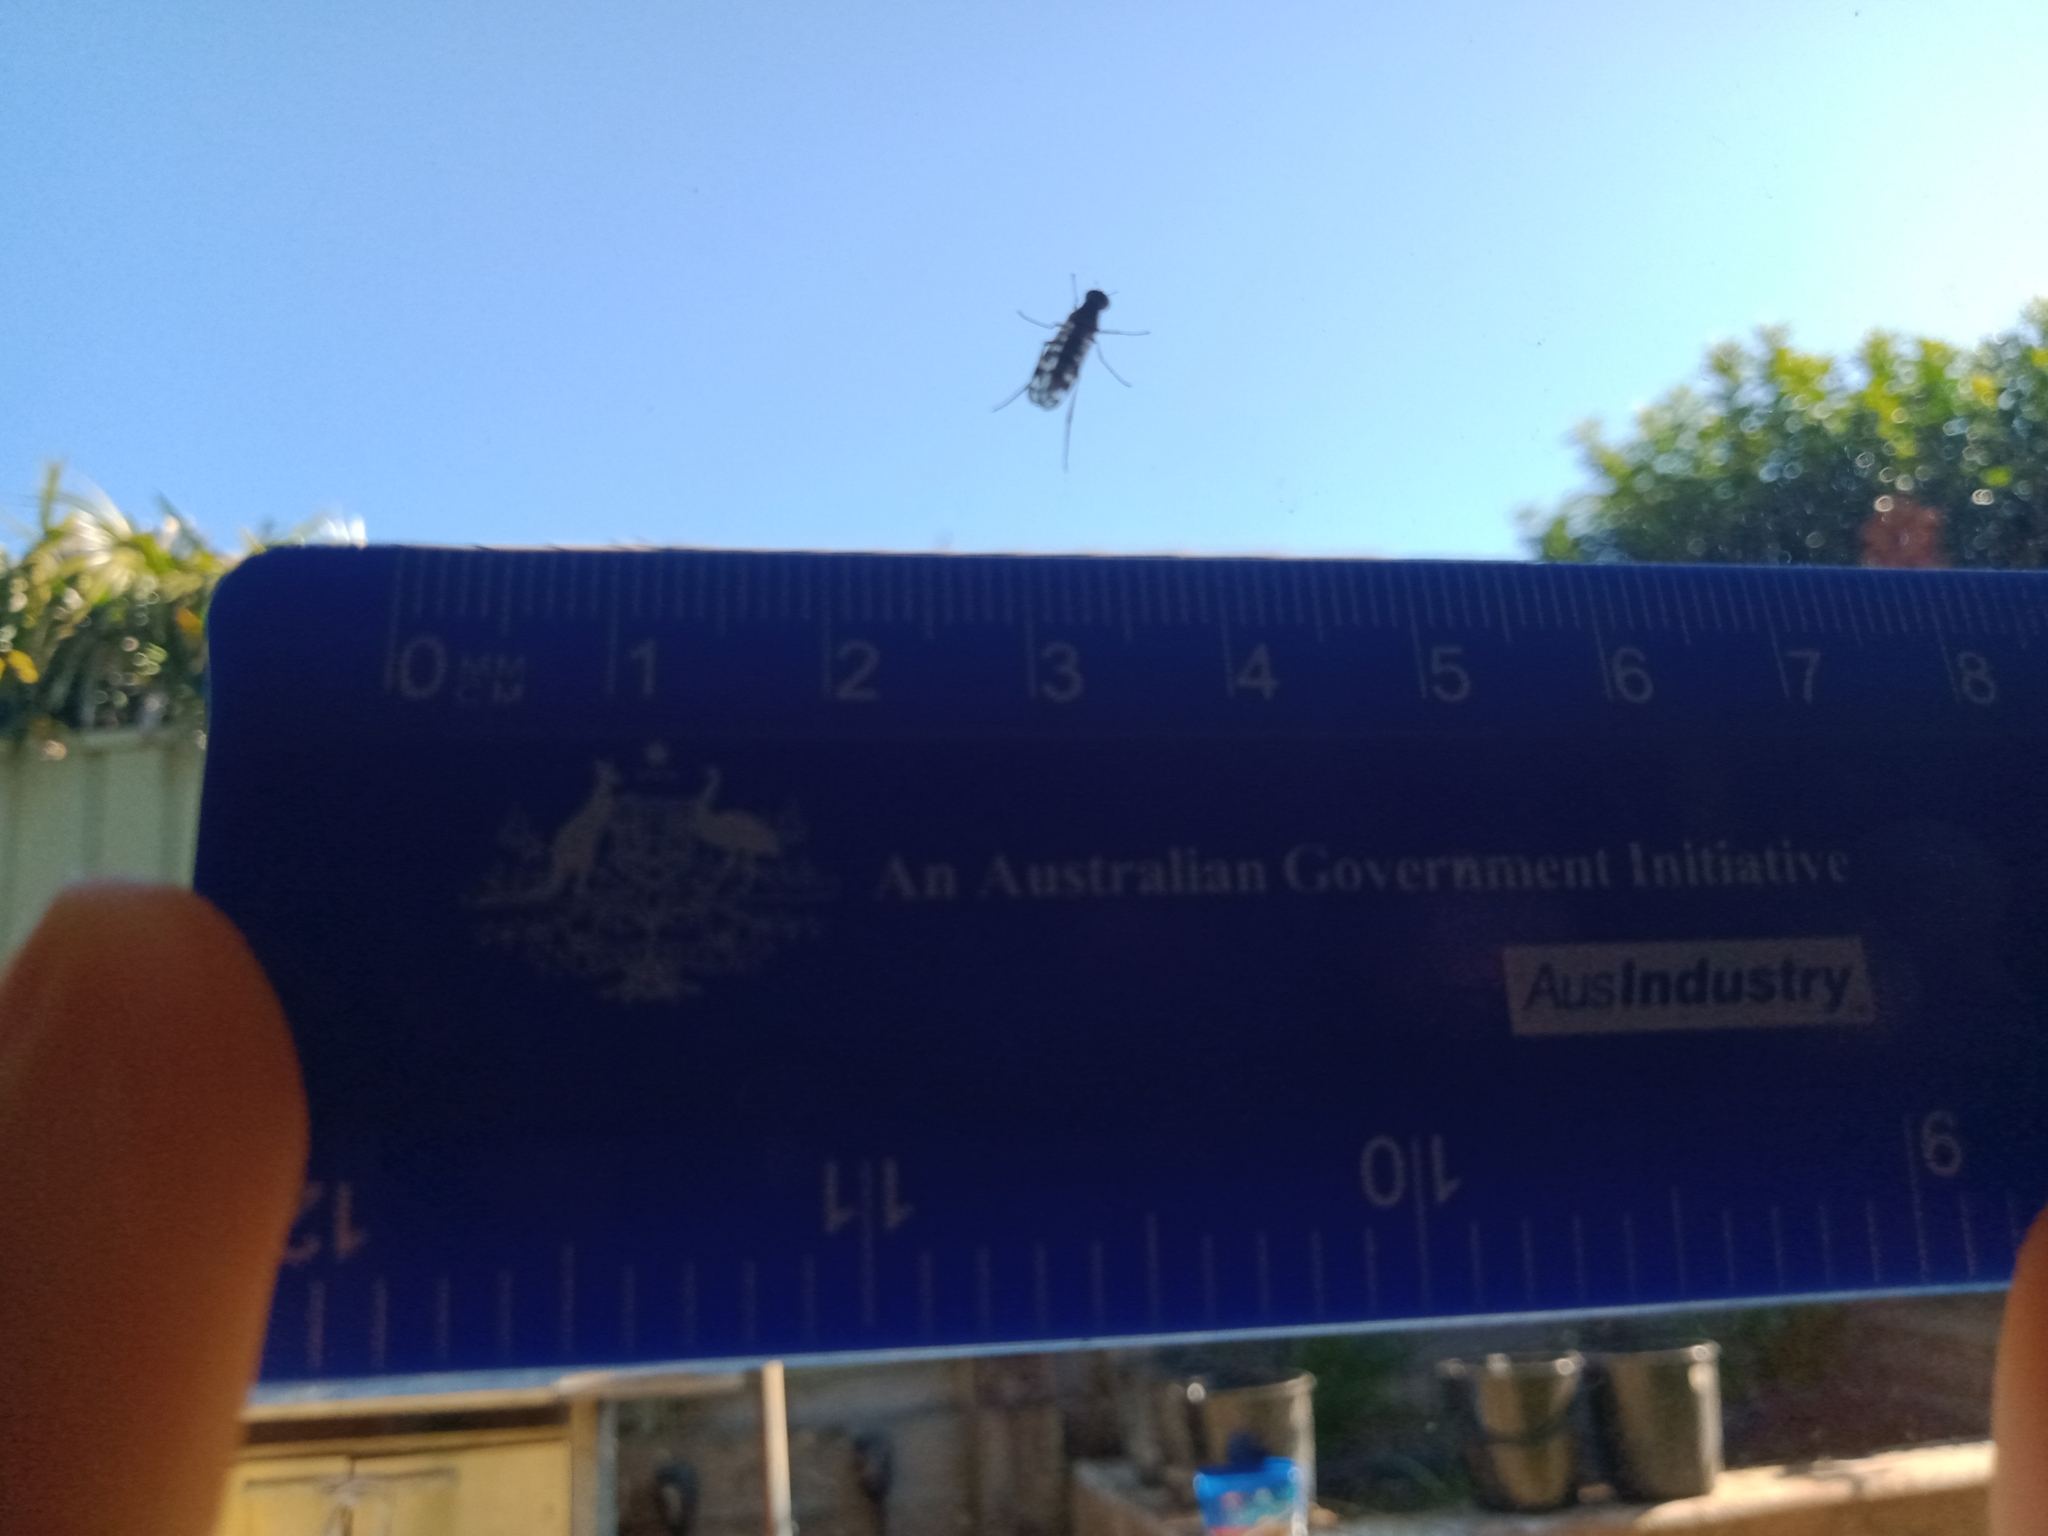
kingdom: Animalia
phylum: Arthropoda
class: Insecta
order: Diptera
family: Anisopodidae
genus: Sylvicola
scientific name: Sylvicola dubius
